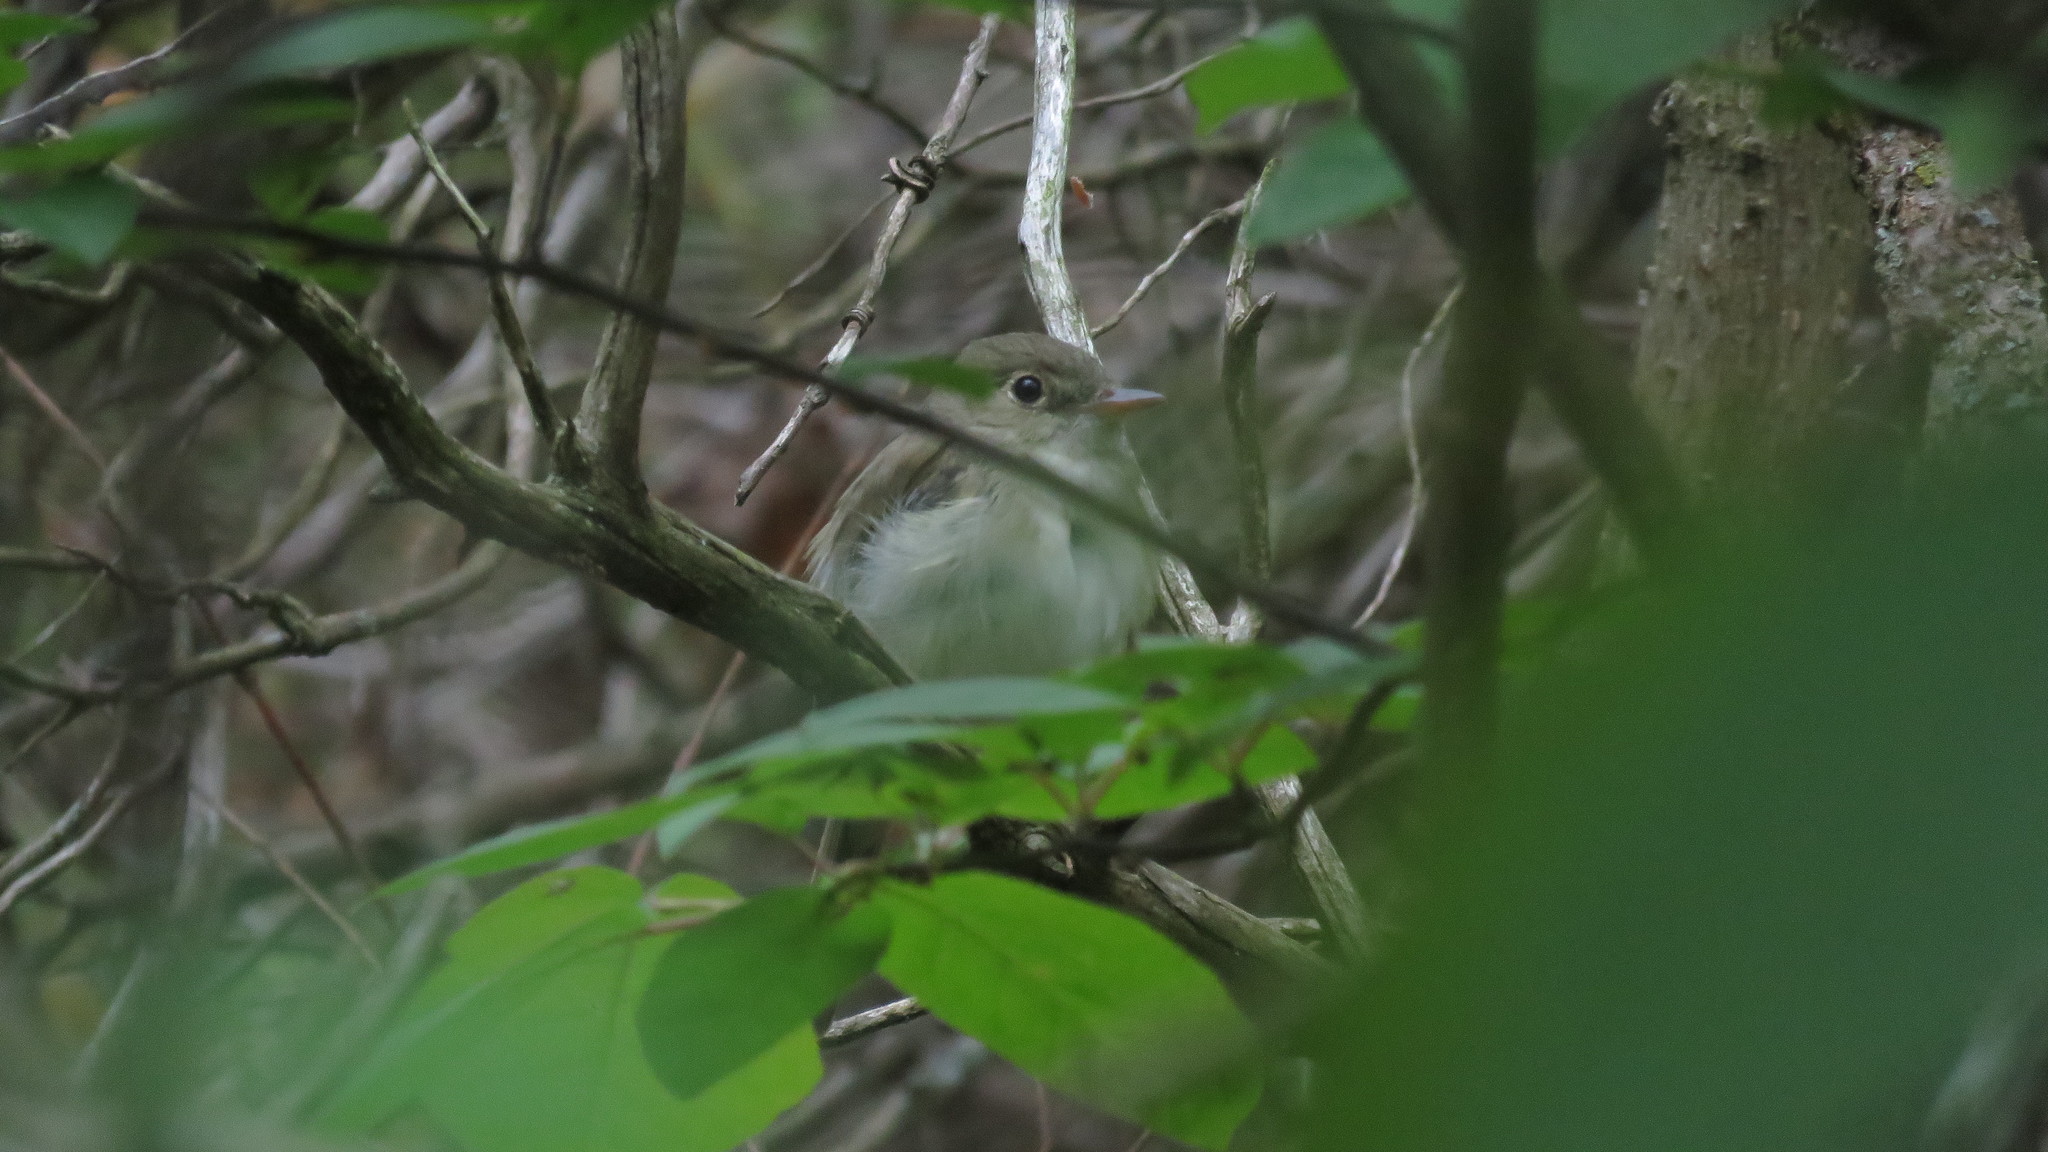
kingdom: Animalia
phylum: Chordata
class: Aves
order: Passeriformes
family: Tyrannidae
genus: Empidonax
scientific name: Empidonax virescens
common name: Acadian flycatcher
